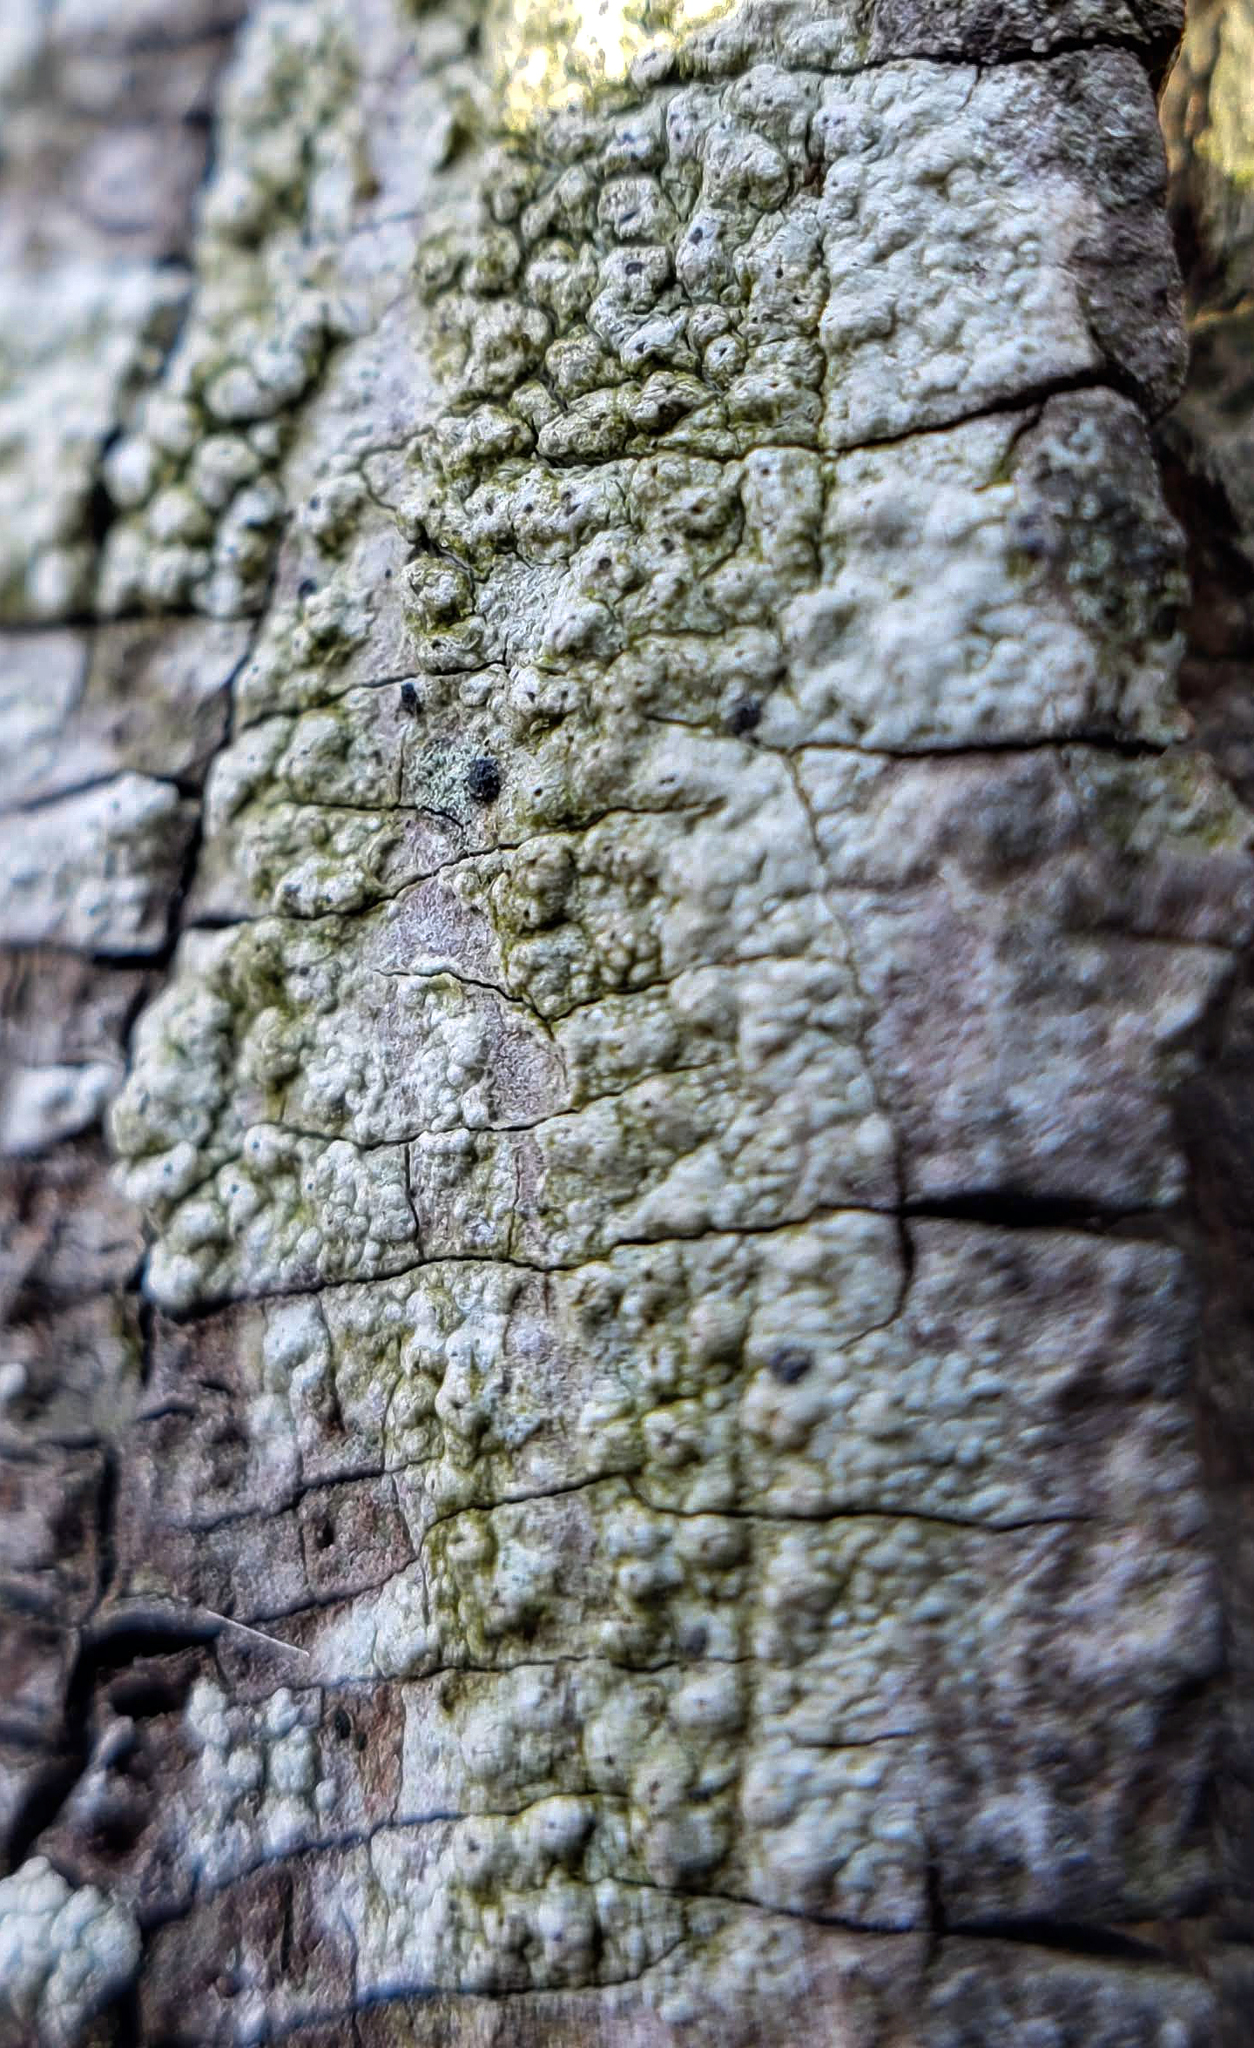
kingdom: Fungi
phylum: Ascomycota
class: Lecanoromycetes
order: Pertusariales
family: Pertusariaceae
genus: Pertusaria
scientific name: Pertusaria pustulata
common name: Branch bumps
